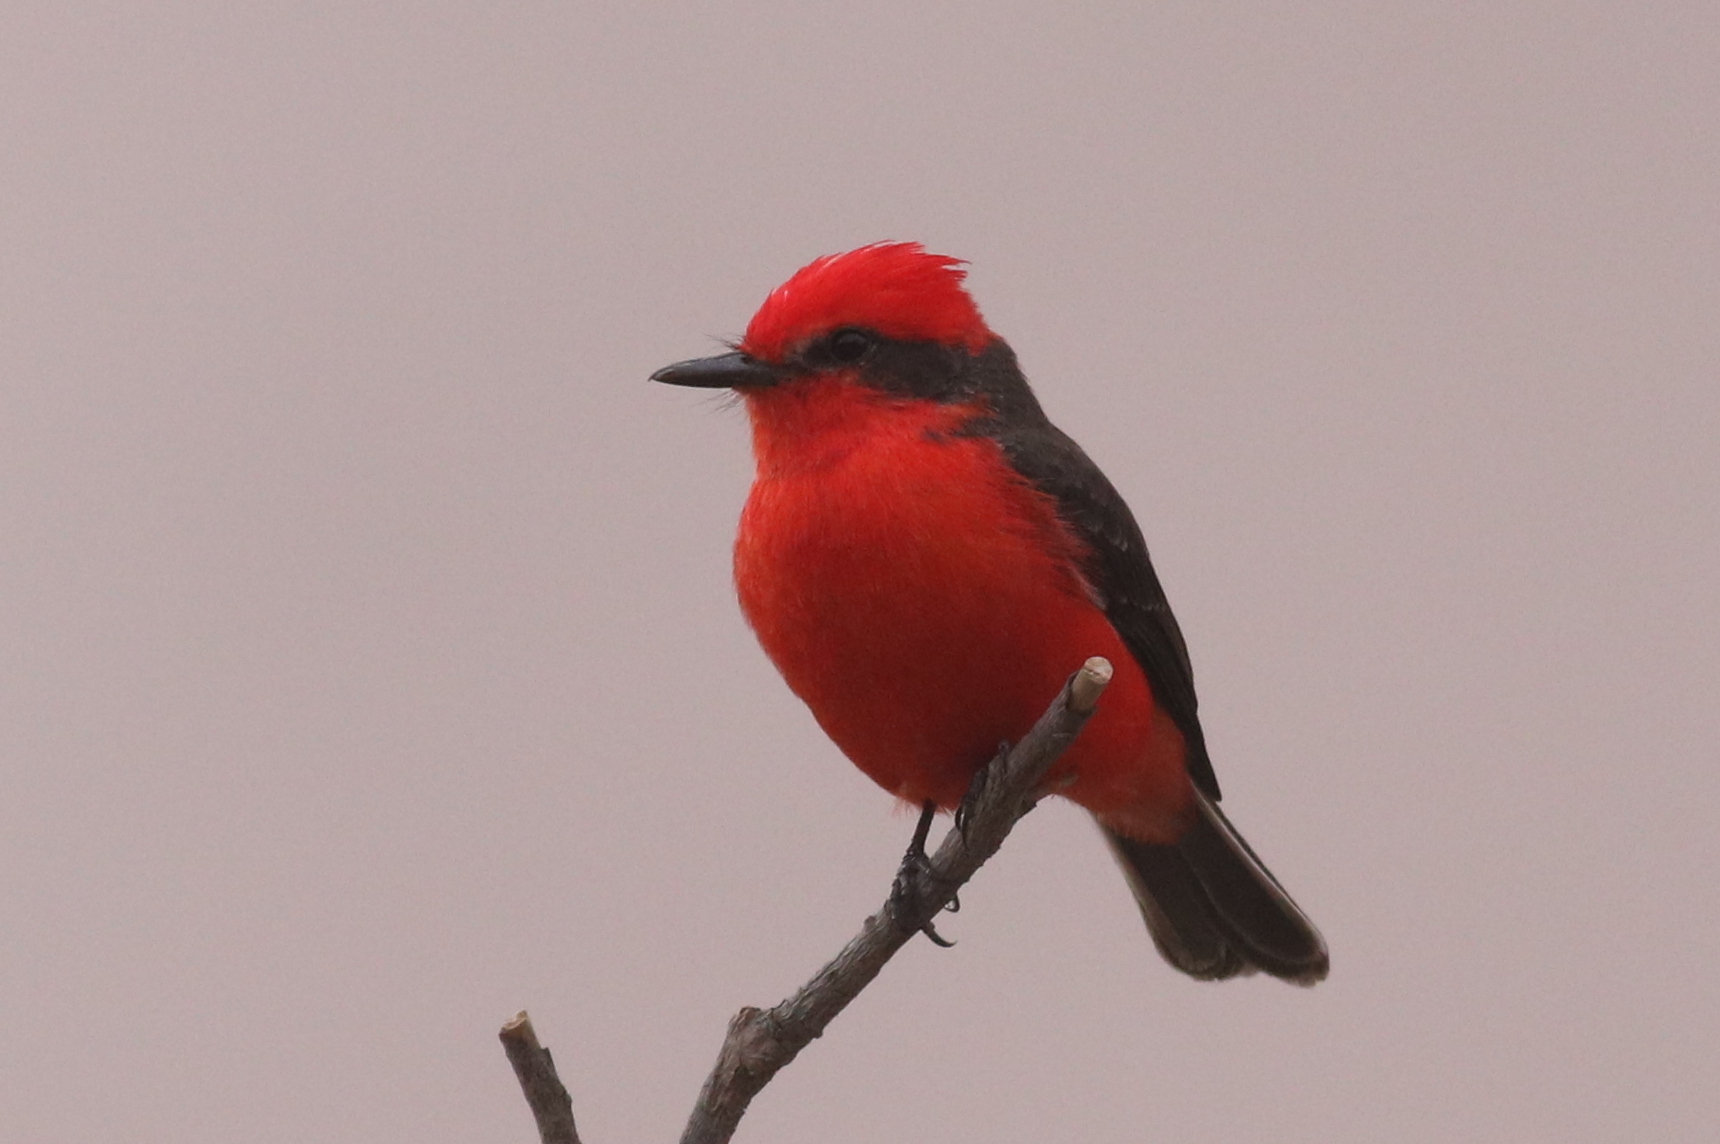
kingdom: Animalia
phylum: Chordata
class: Aves
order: Passeriformes
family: Tyrannidae
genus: Pyrocephalus
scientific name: Pyrocephalus rubinus
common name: Vermilion flycatcher
